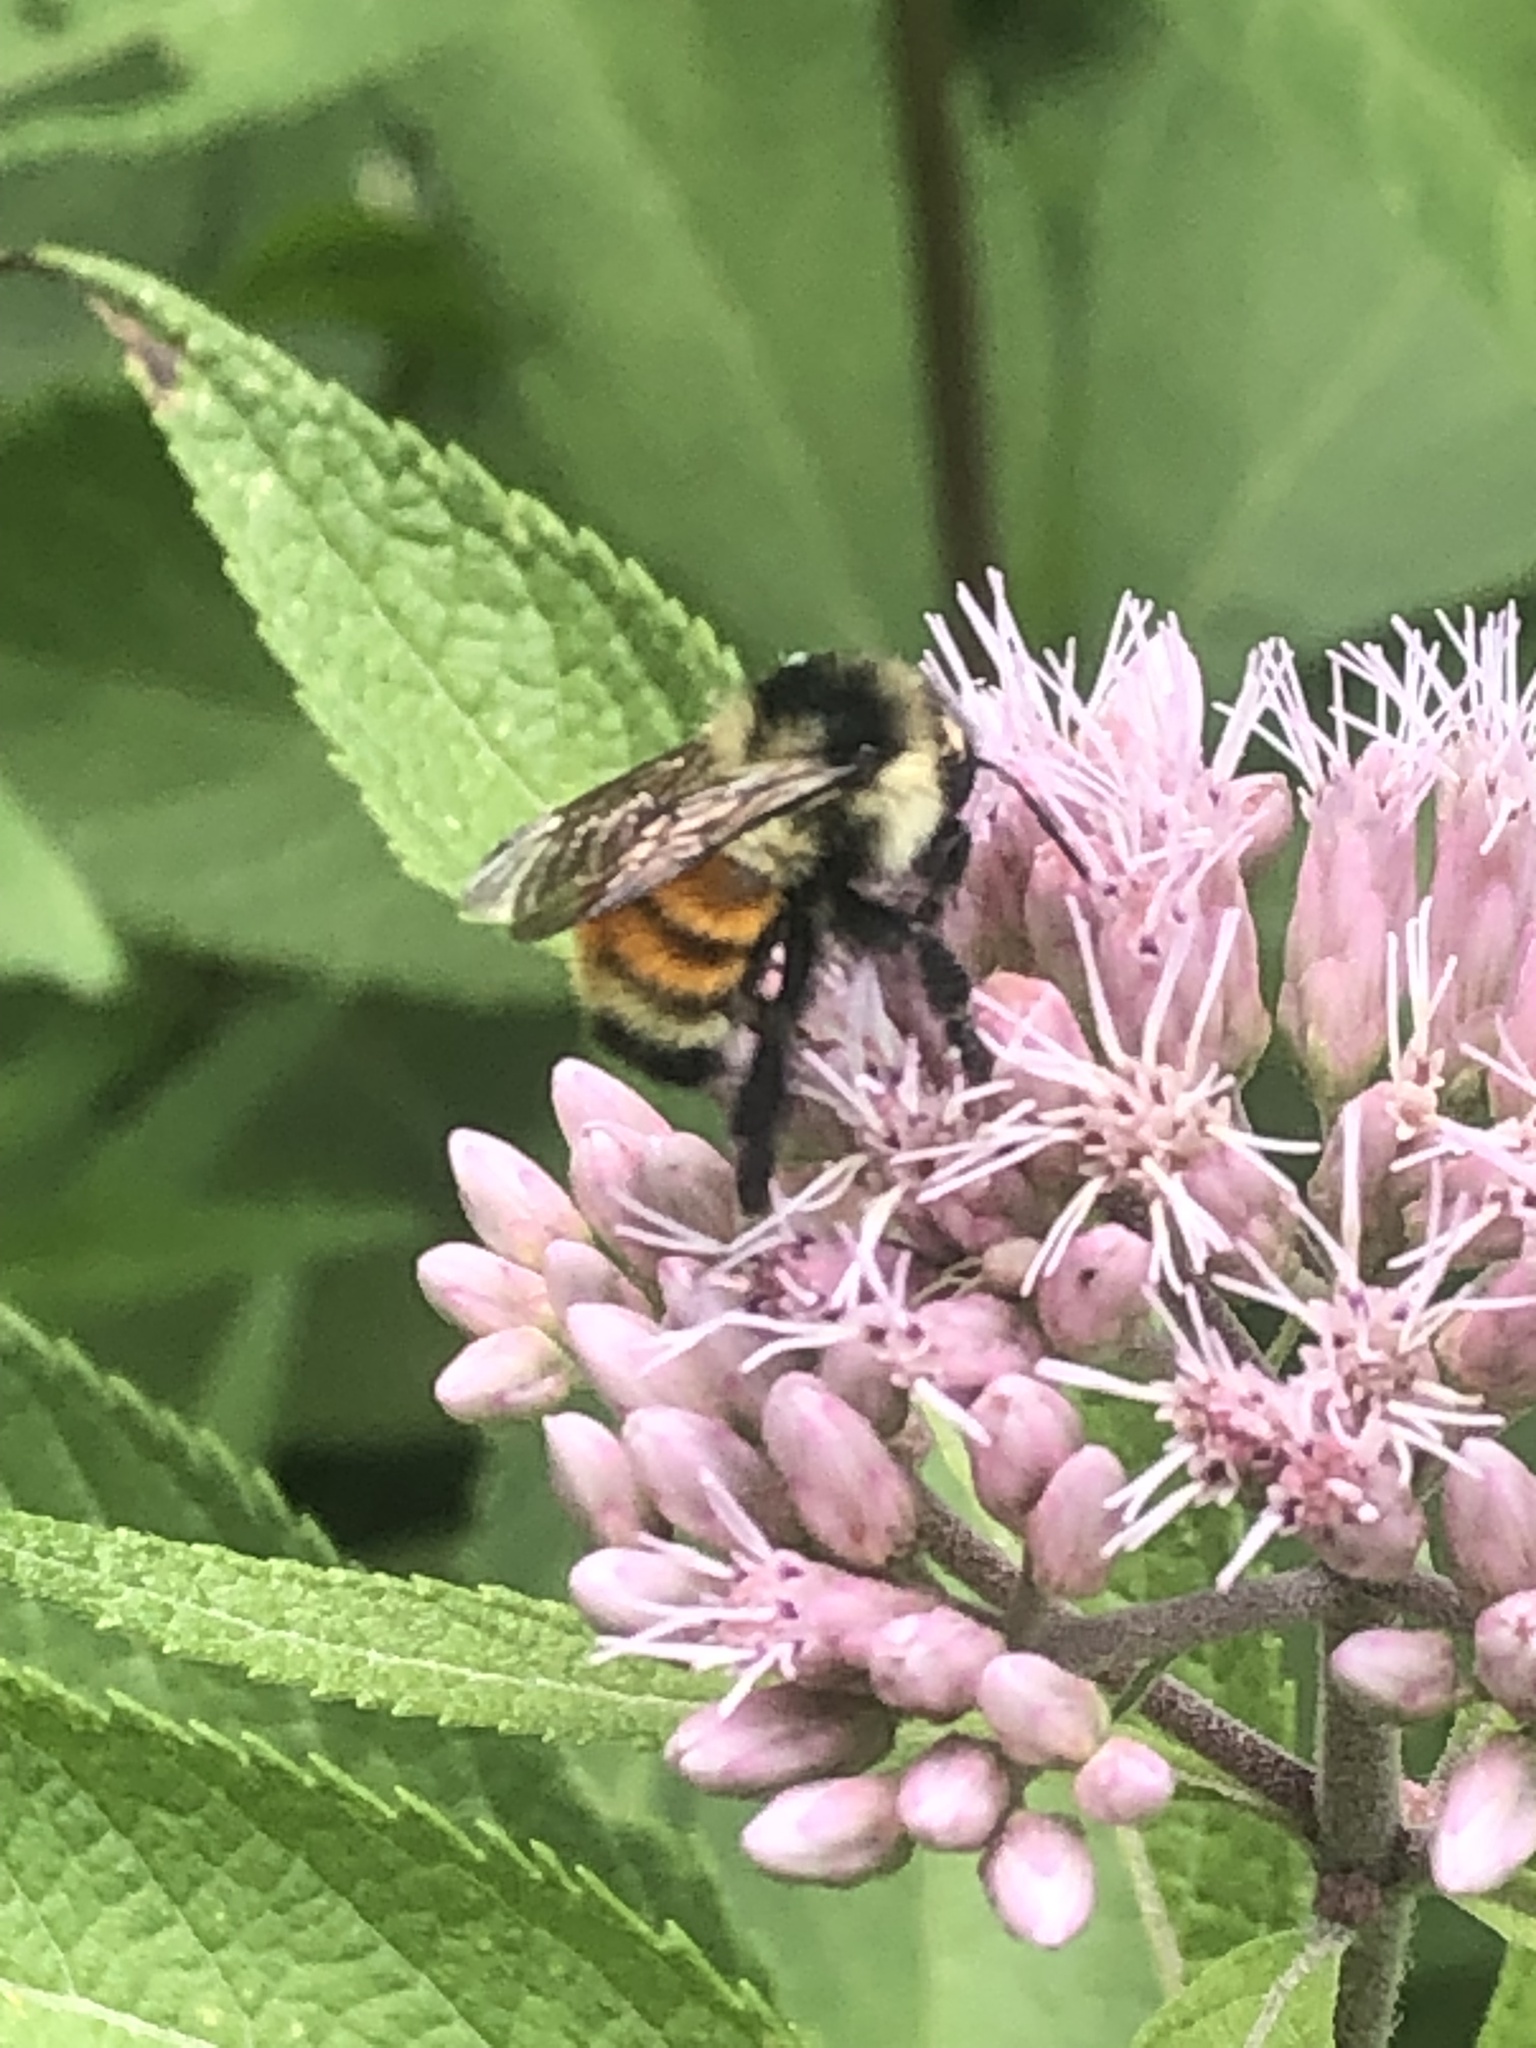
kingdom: Animalia
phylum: Arthropoda
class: Insecta
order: Hymenoptera
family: Apidae
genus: Bombus
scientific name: Bombus ternarius
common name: Tri-colored bumble bee
